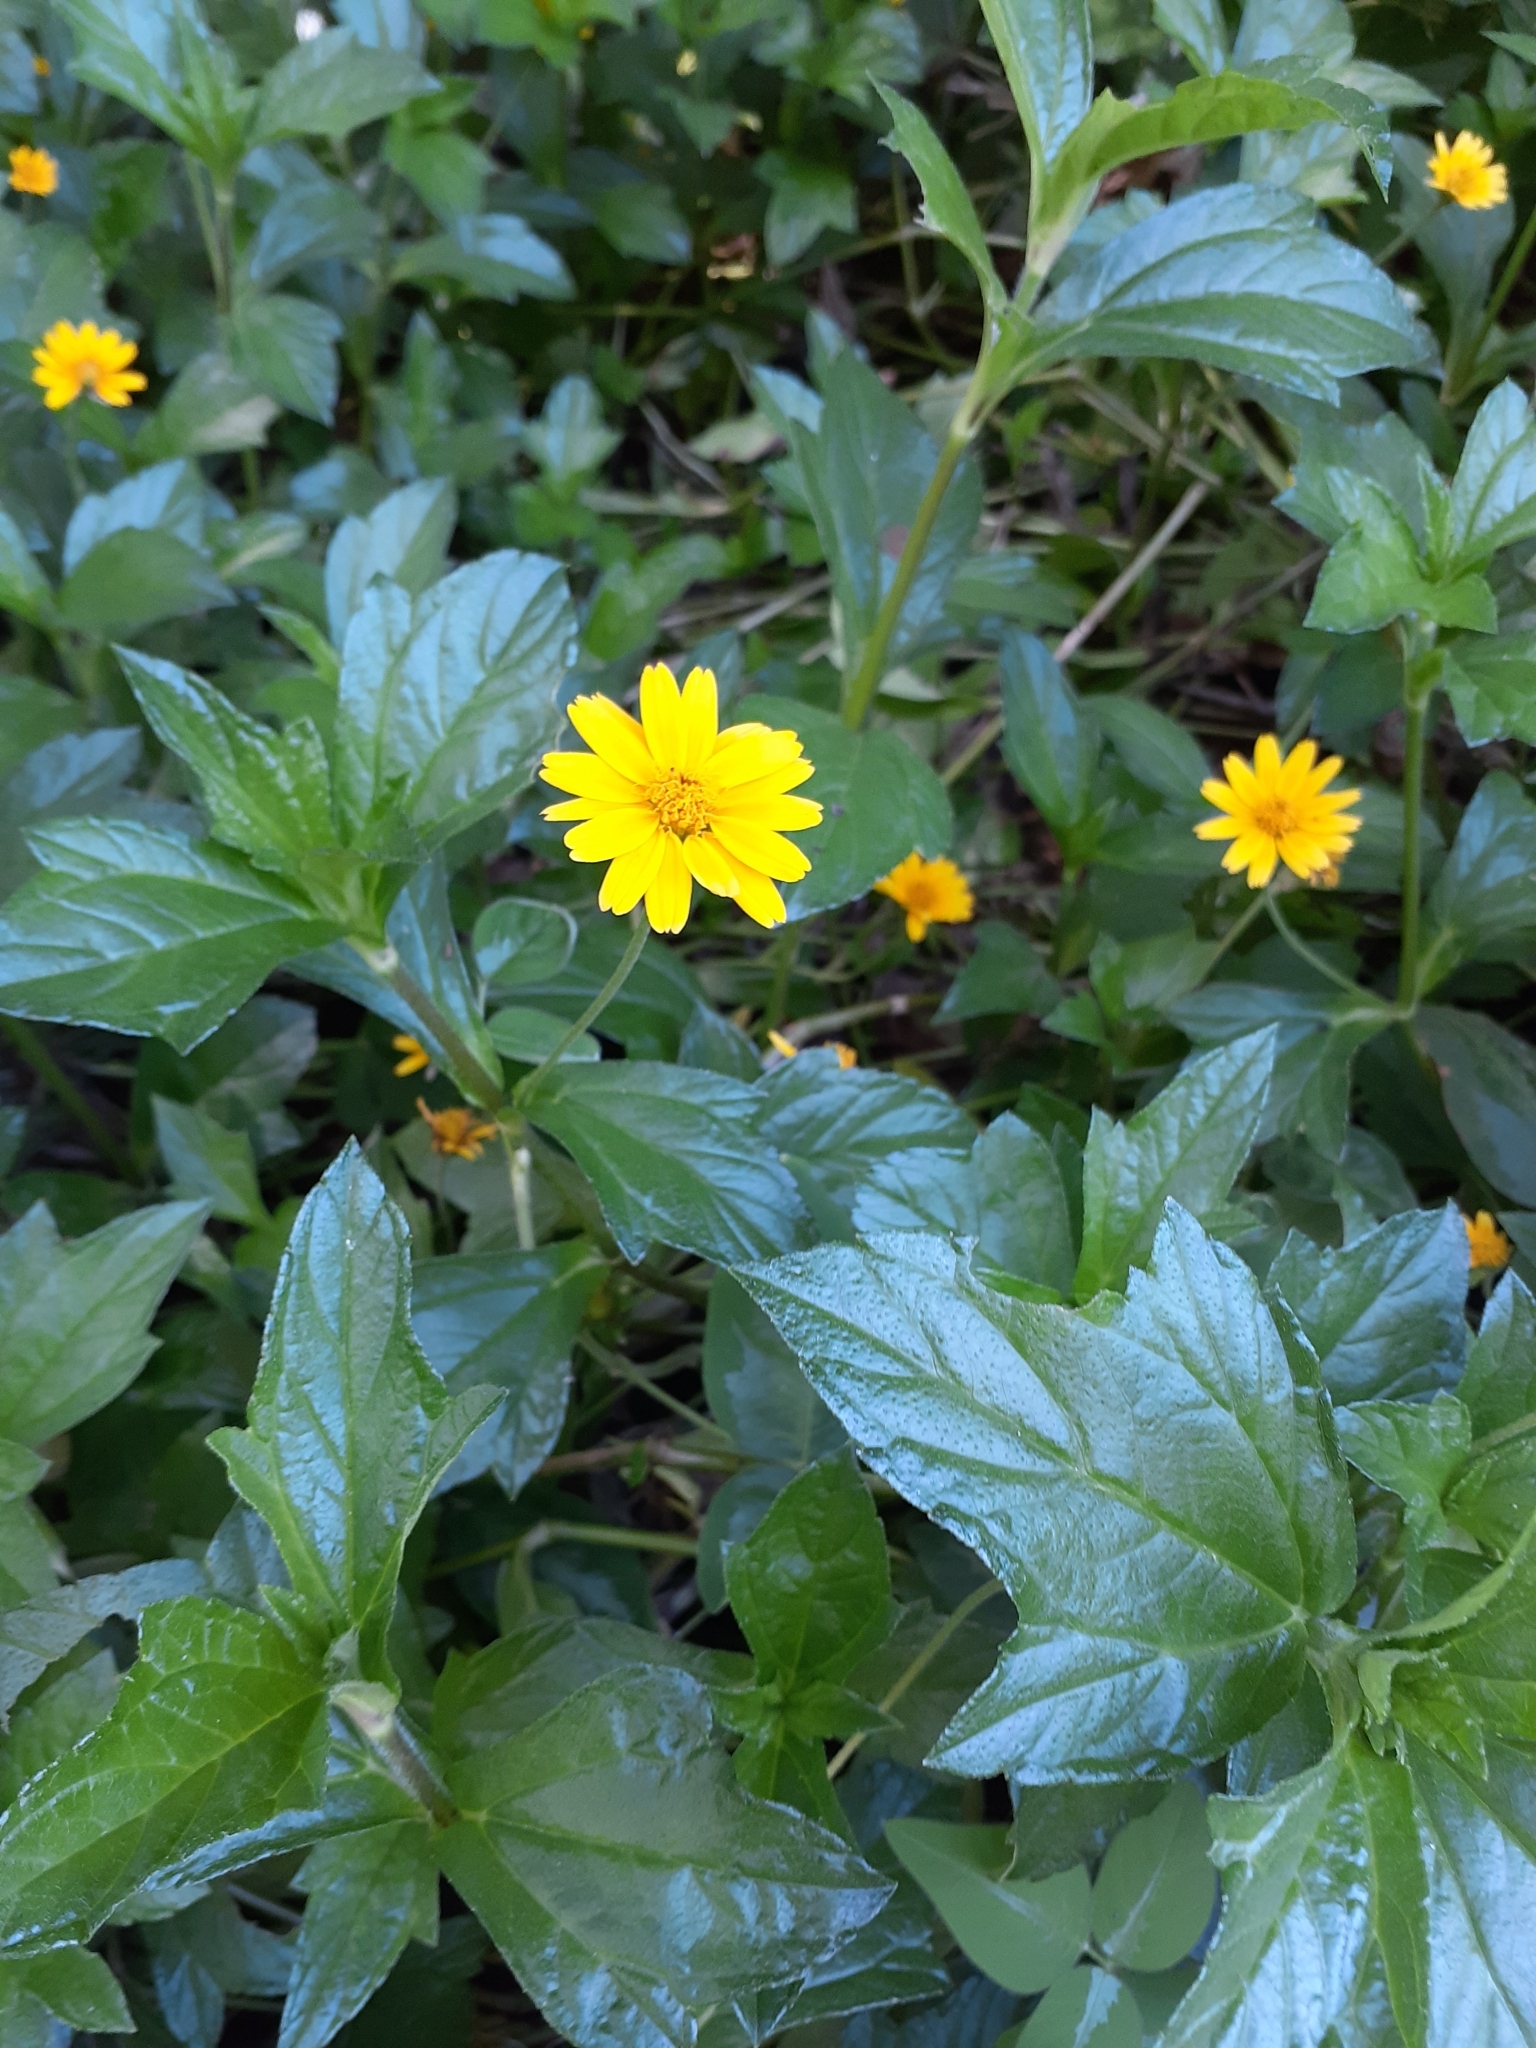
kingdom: Plantae
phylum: Tracheophyta
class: Magnoliopsida
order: Asterales
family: Asteraceae
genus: Sphagneticola
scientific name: Sphagneticola trilobata
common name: Bay biscayne creeping-oxeye
